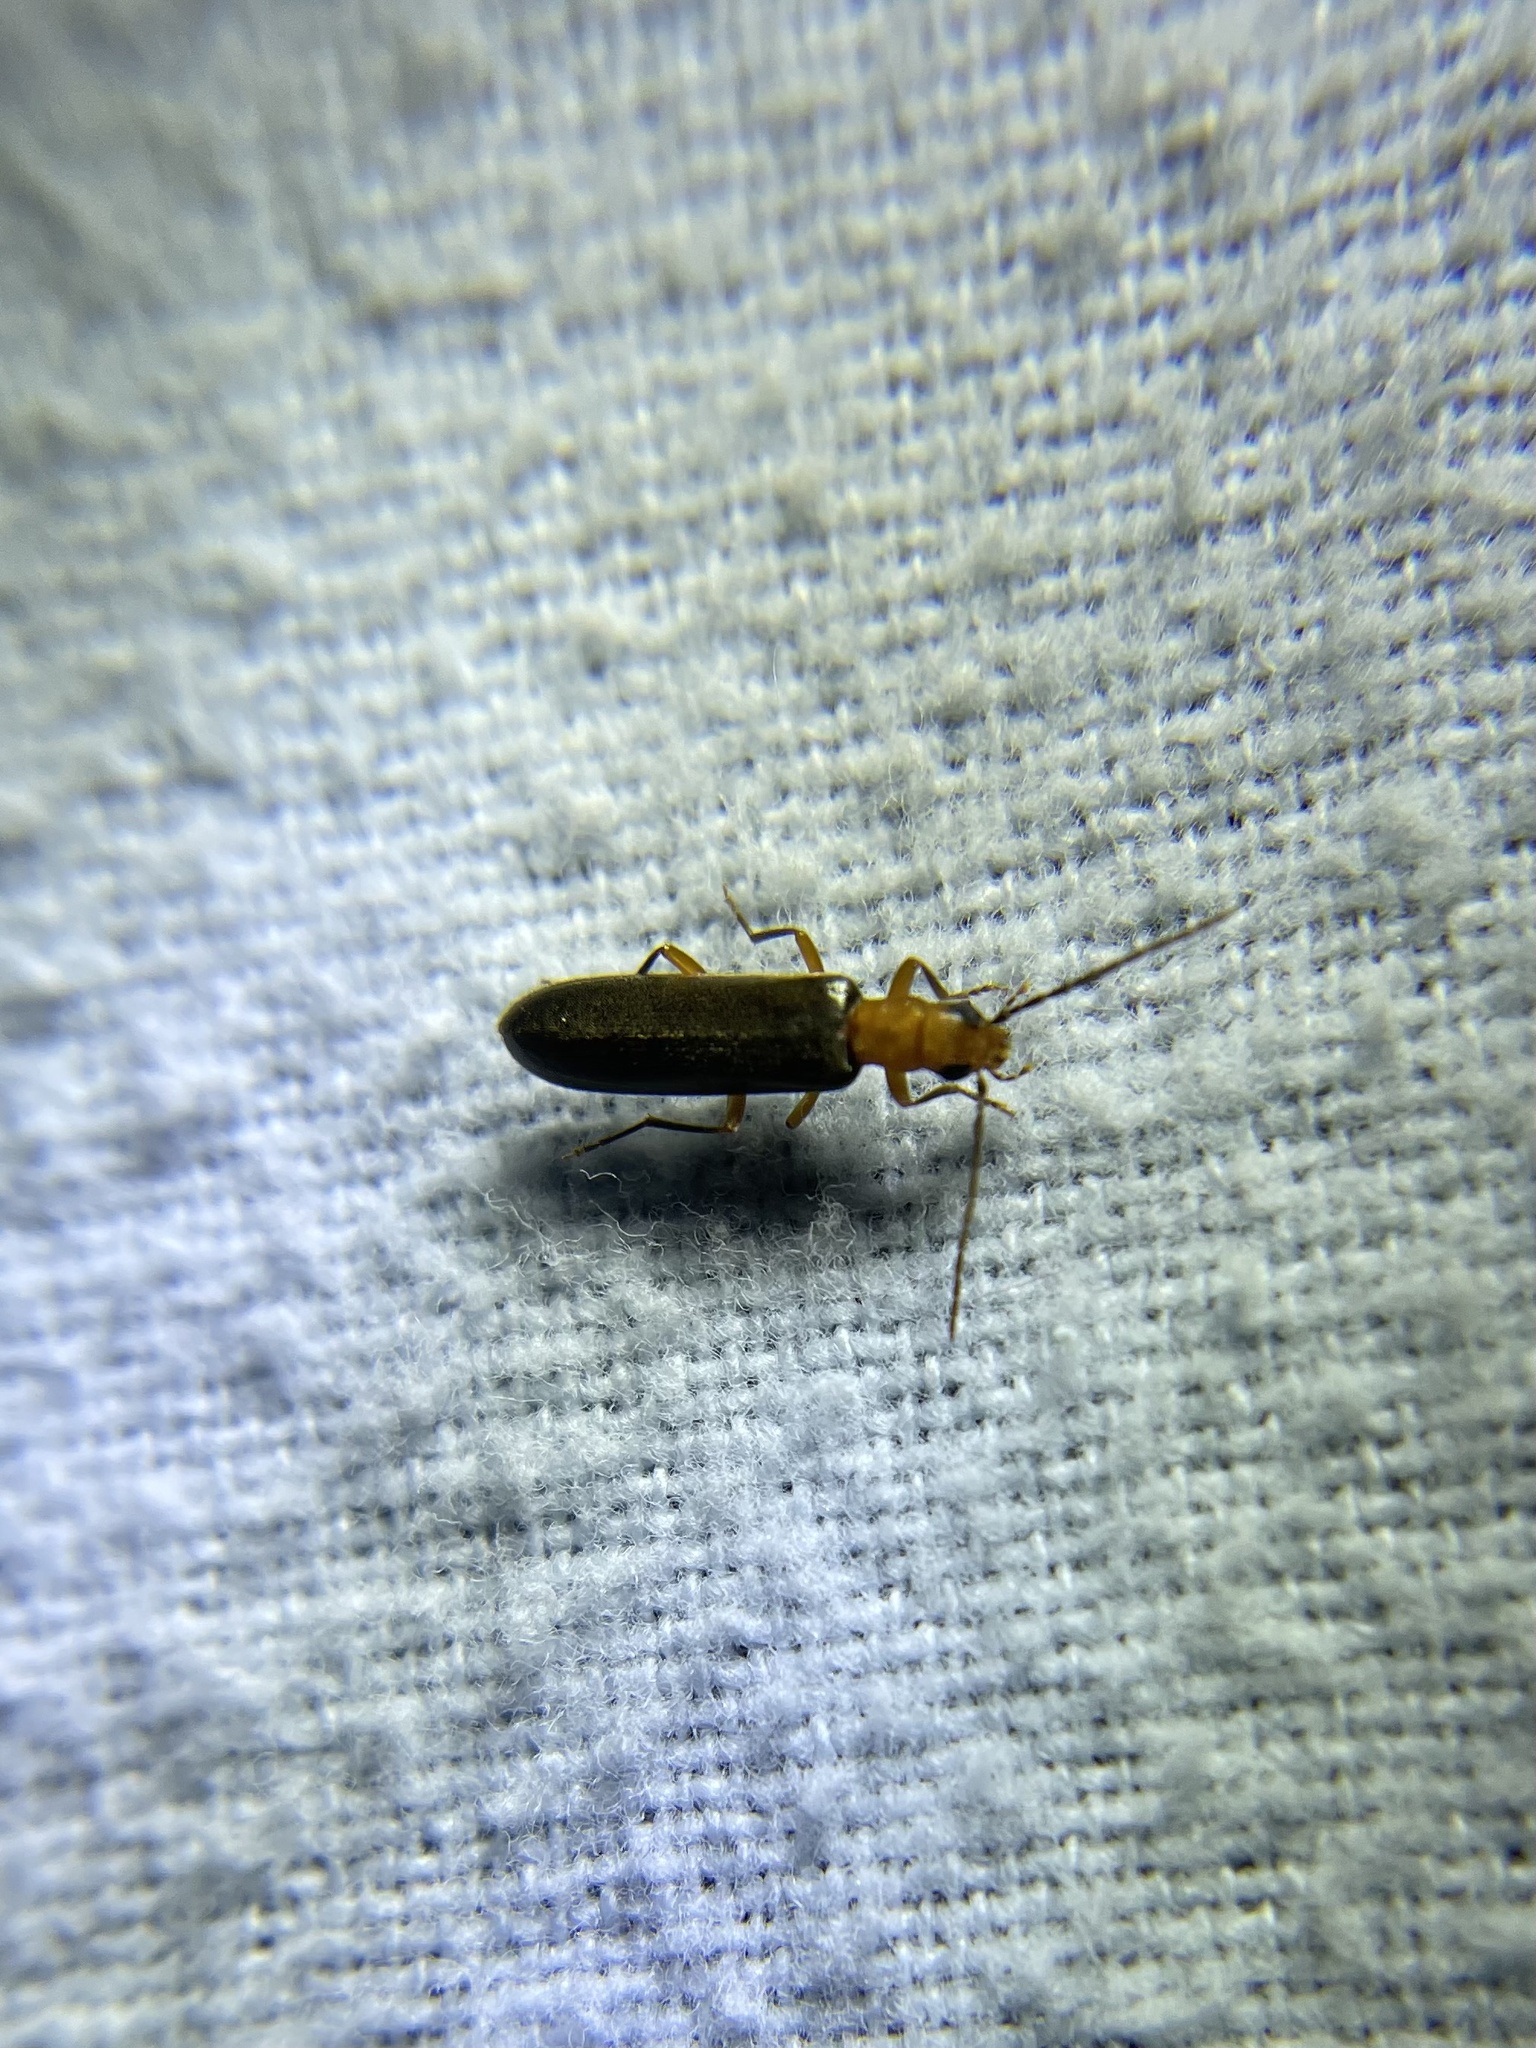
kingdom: Animalia
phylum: Arthropoda
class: Insecta
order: Coleoptera
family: Oedemeridae
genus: Xanthochroina
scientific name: Xanthochroina bicolor
